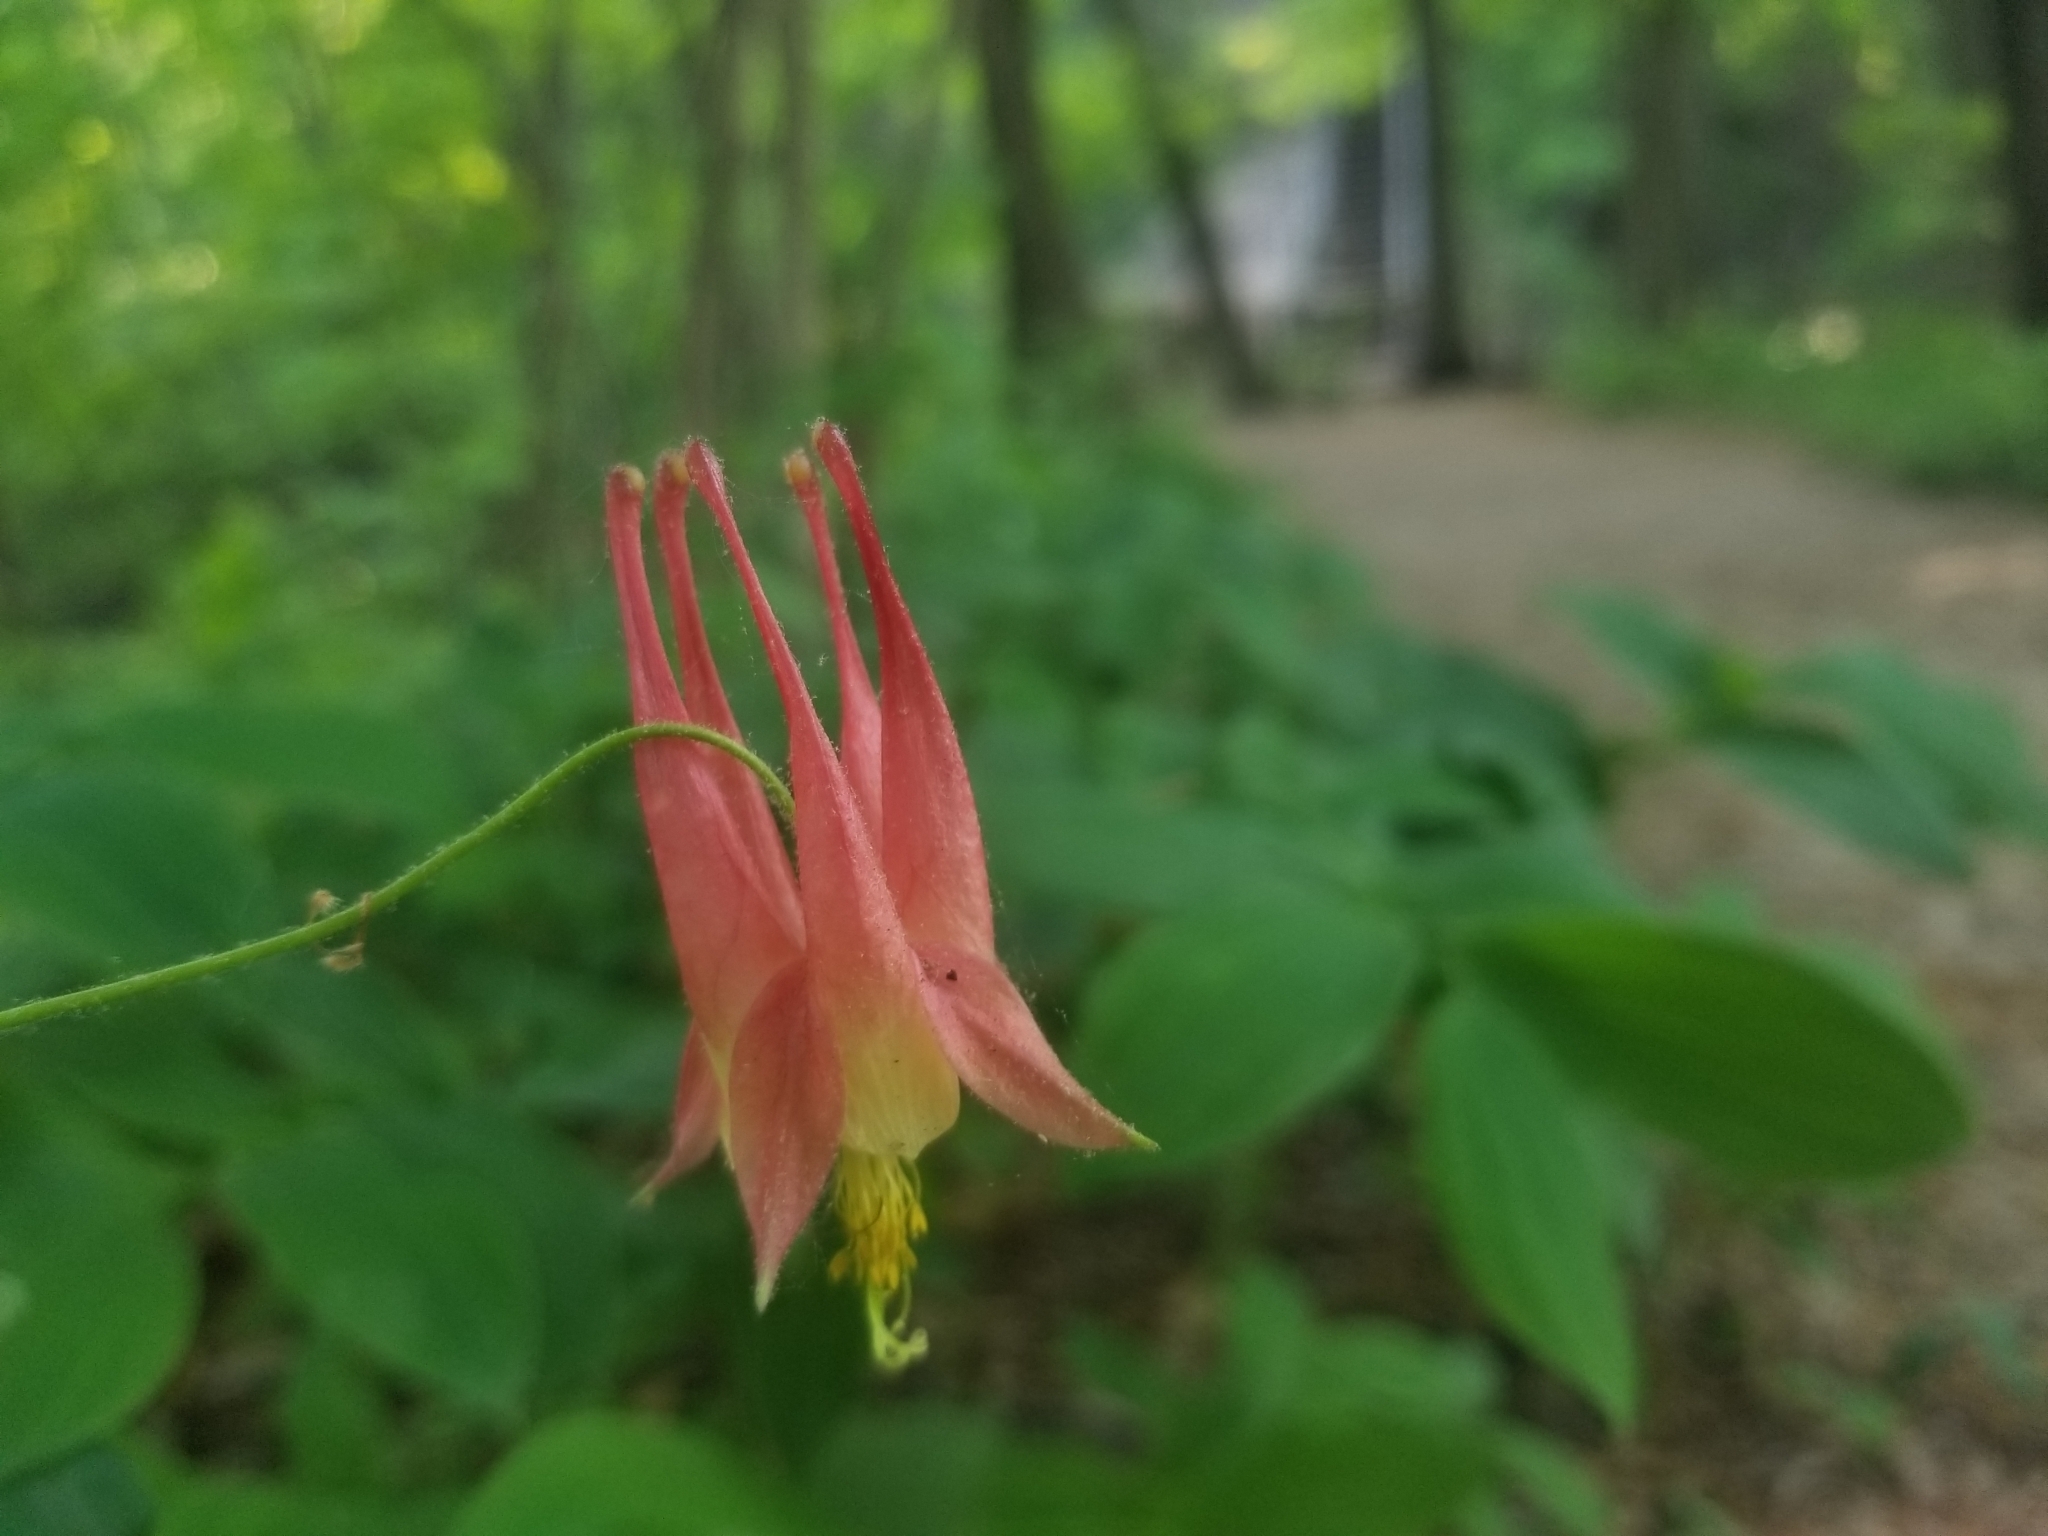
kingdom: Plantae
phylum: Tracheophyta
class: Magnoliopsida
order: Ranunculales
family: Ranunculaceae
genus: Aquilegia
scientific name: Aquilegia canadensis
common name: American columbine
